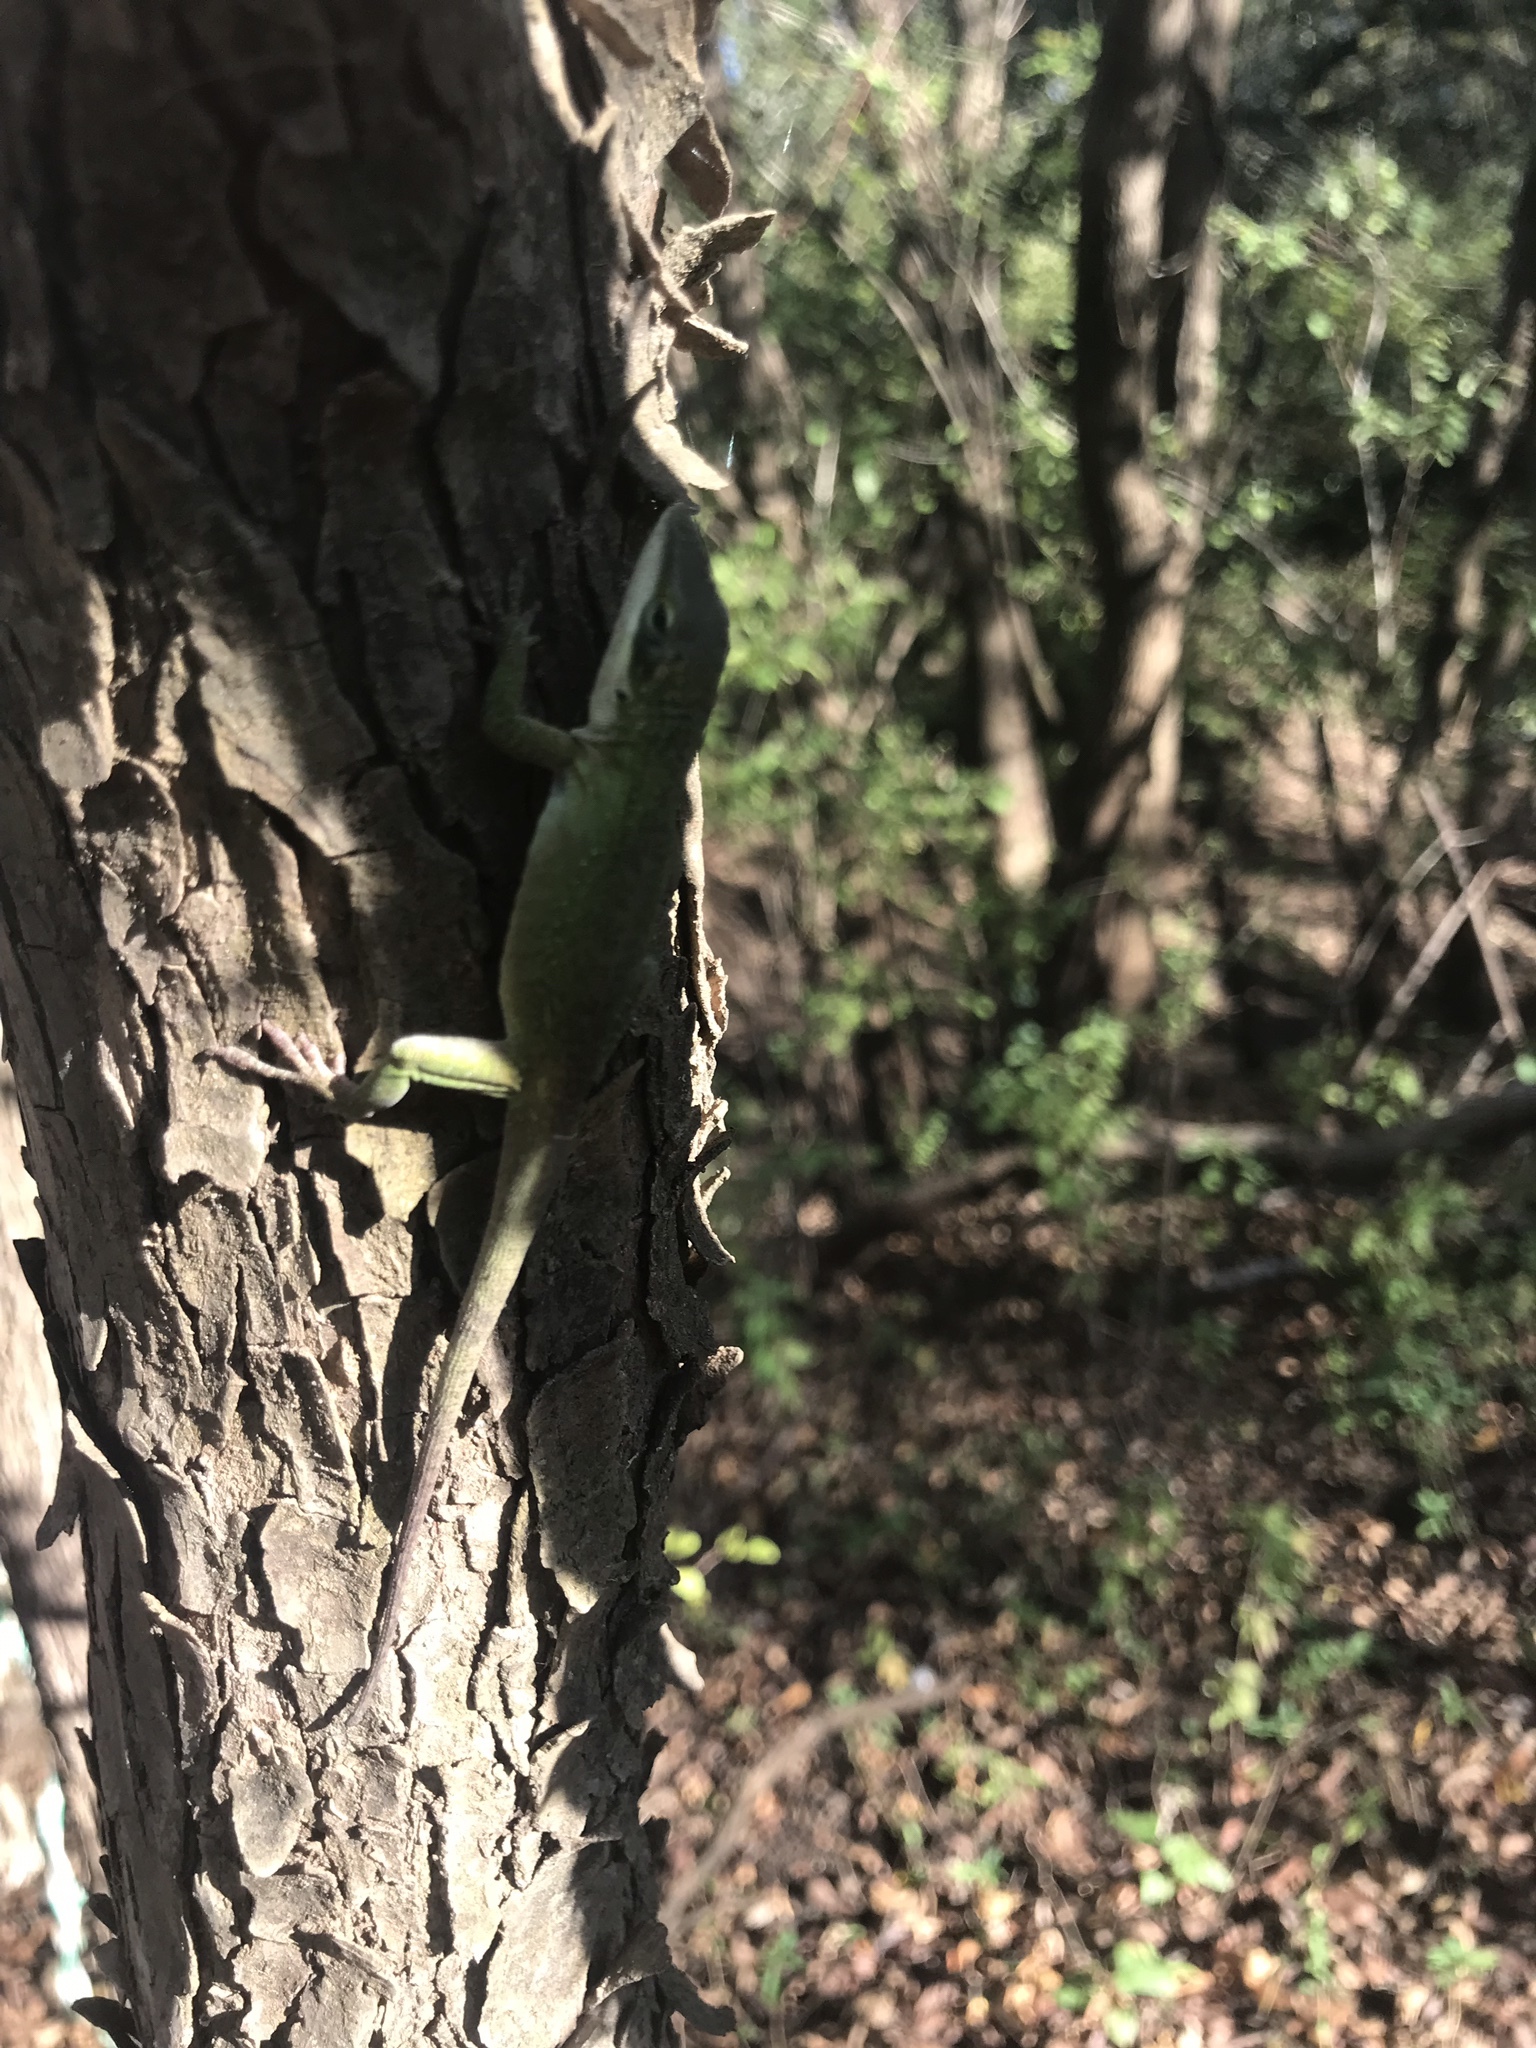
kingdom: Animalia
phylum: Chordata
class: Squamata
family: Dactyloidae
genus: Anolis
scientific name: Anolis carolinensis
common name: Green anole
